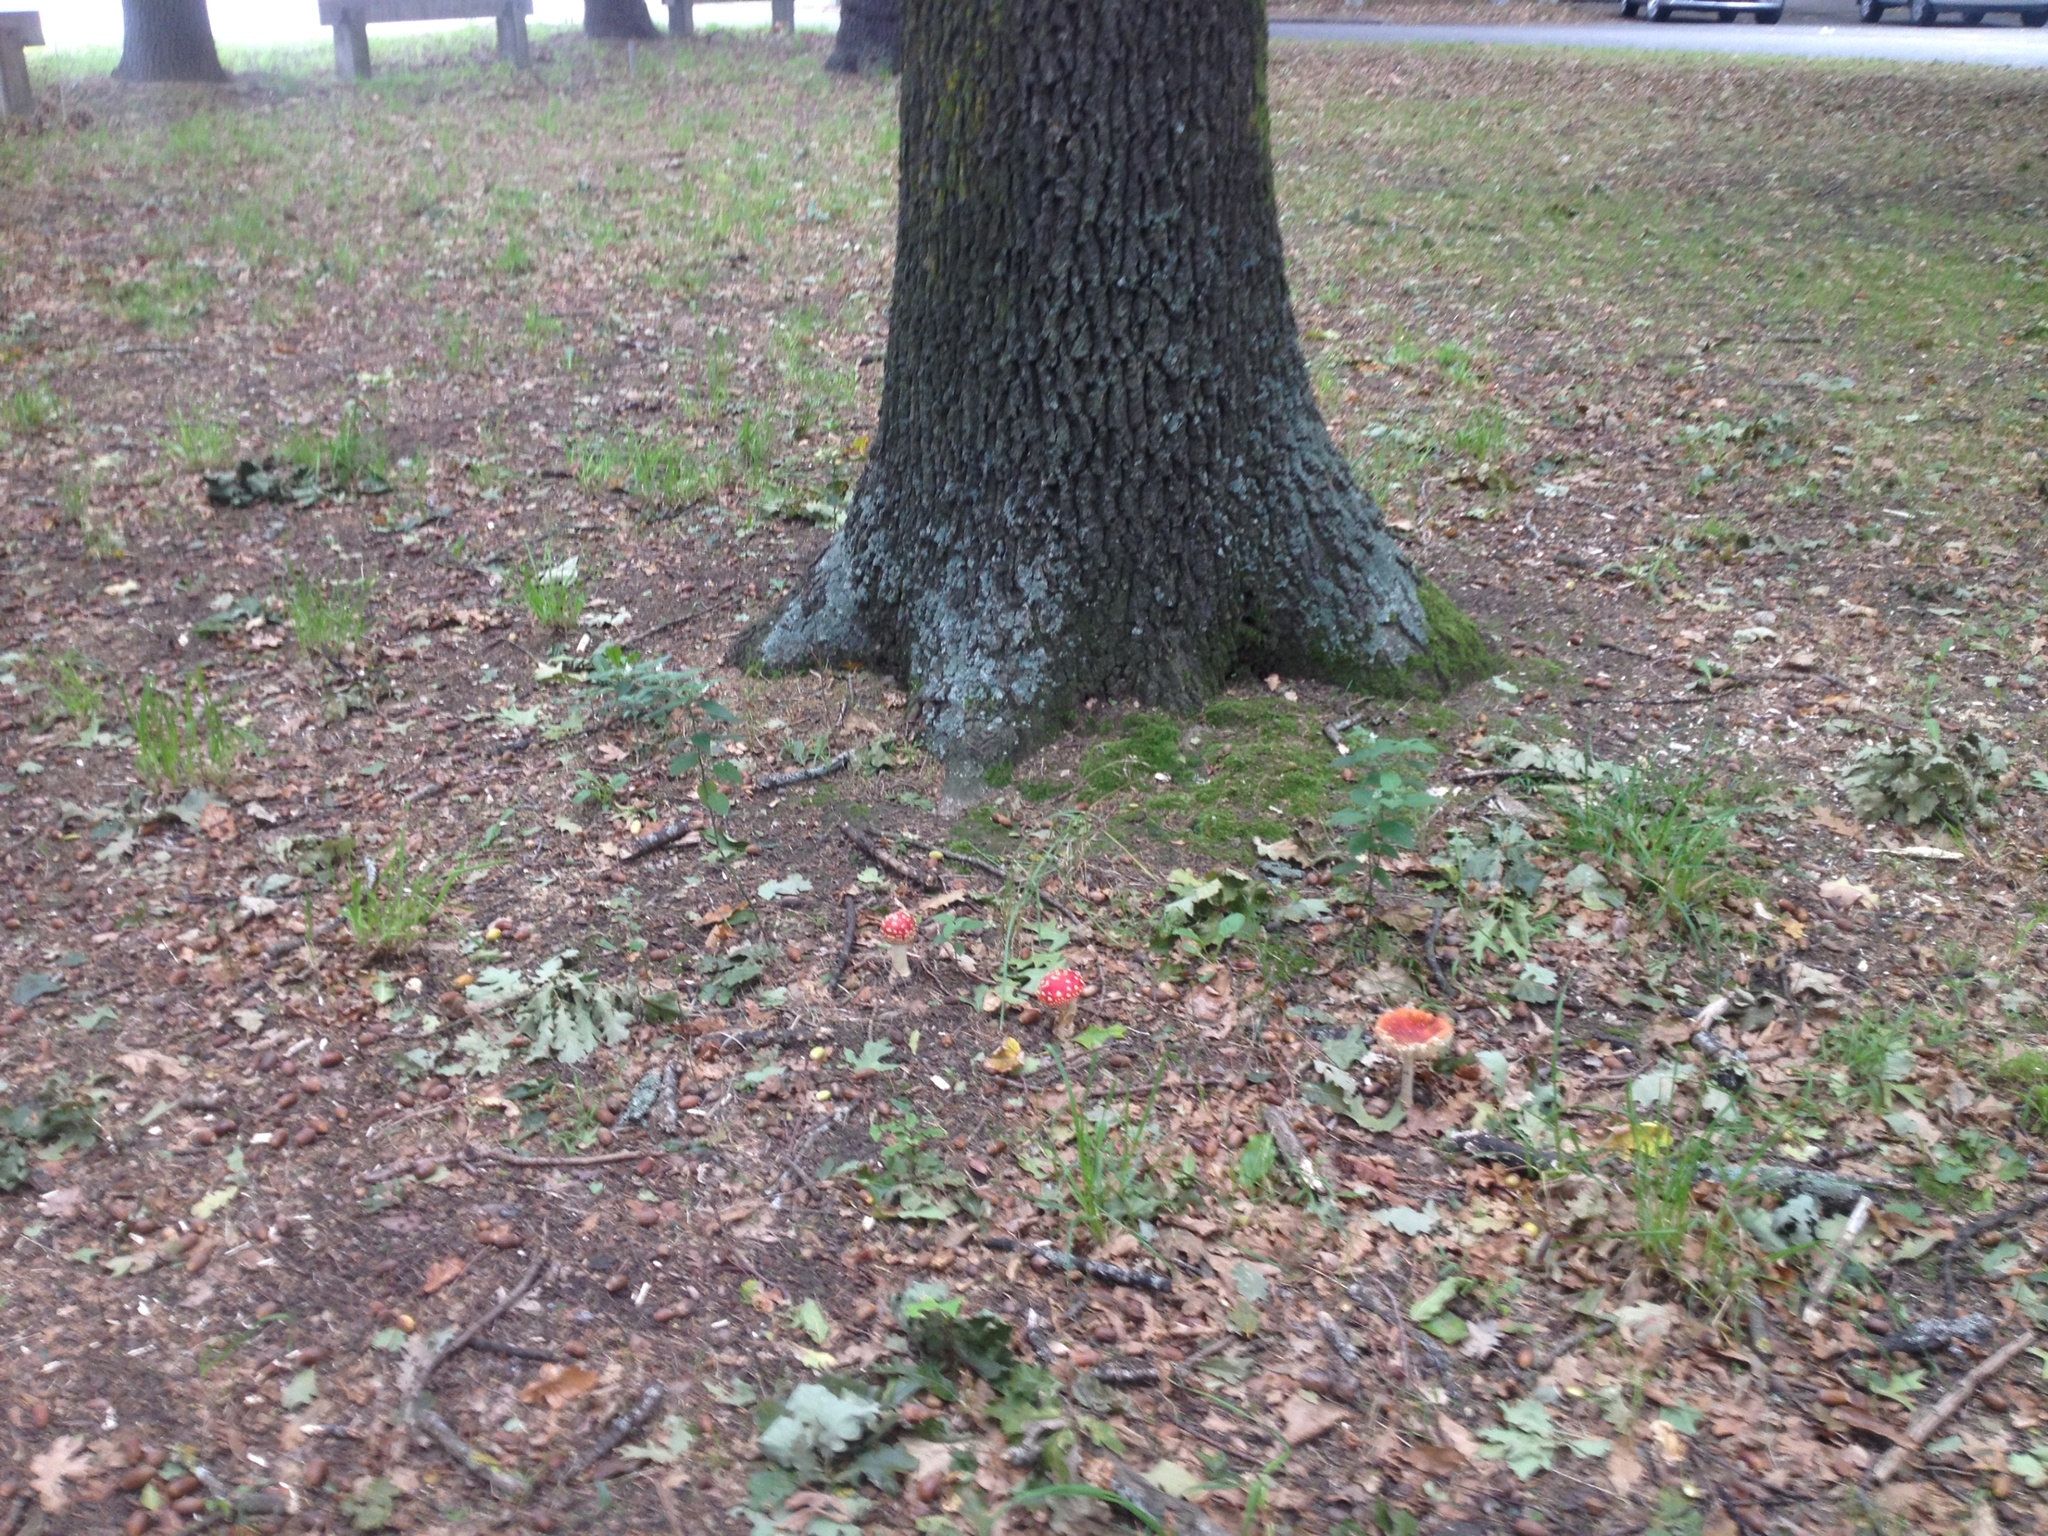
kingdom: Fungi
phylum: Basidiomycota
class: Agaricomycetes
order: Agaricales
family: Amanitaceae
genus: Amanita
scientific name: Amanita muscaria
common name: Fly agaric
